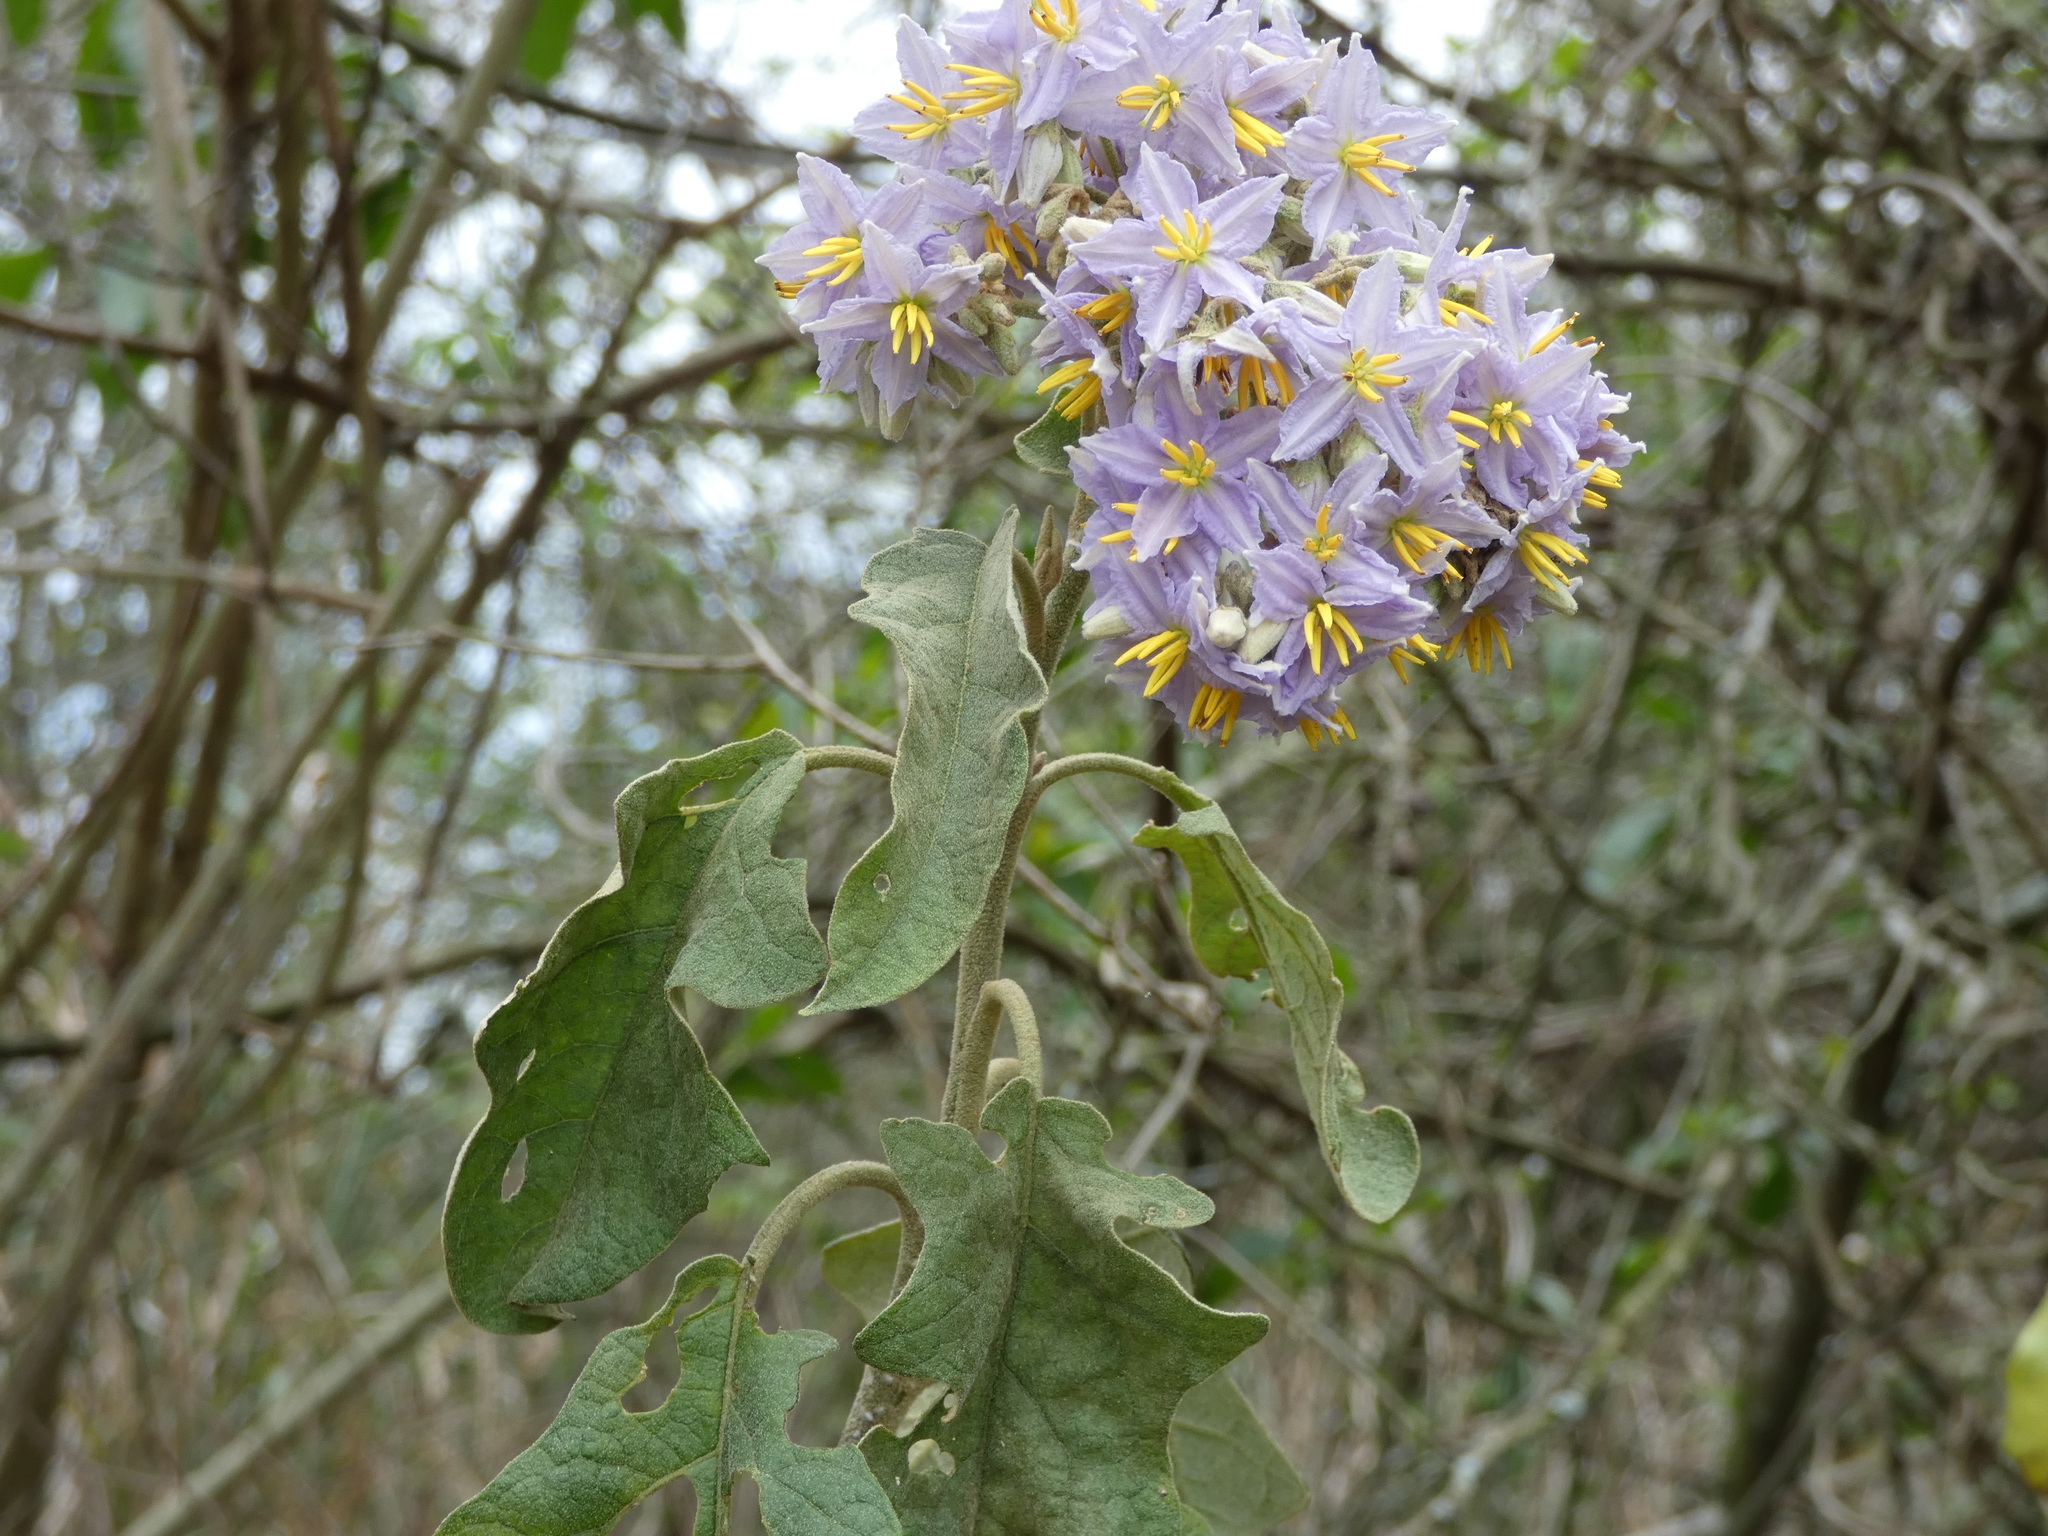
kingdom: Plantae
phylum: Tracheophyta
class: Magnoliopsida
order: Solanales
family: Solanaceae
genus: Solanum
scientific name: Solanum paniculatum
